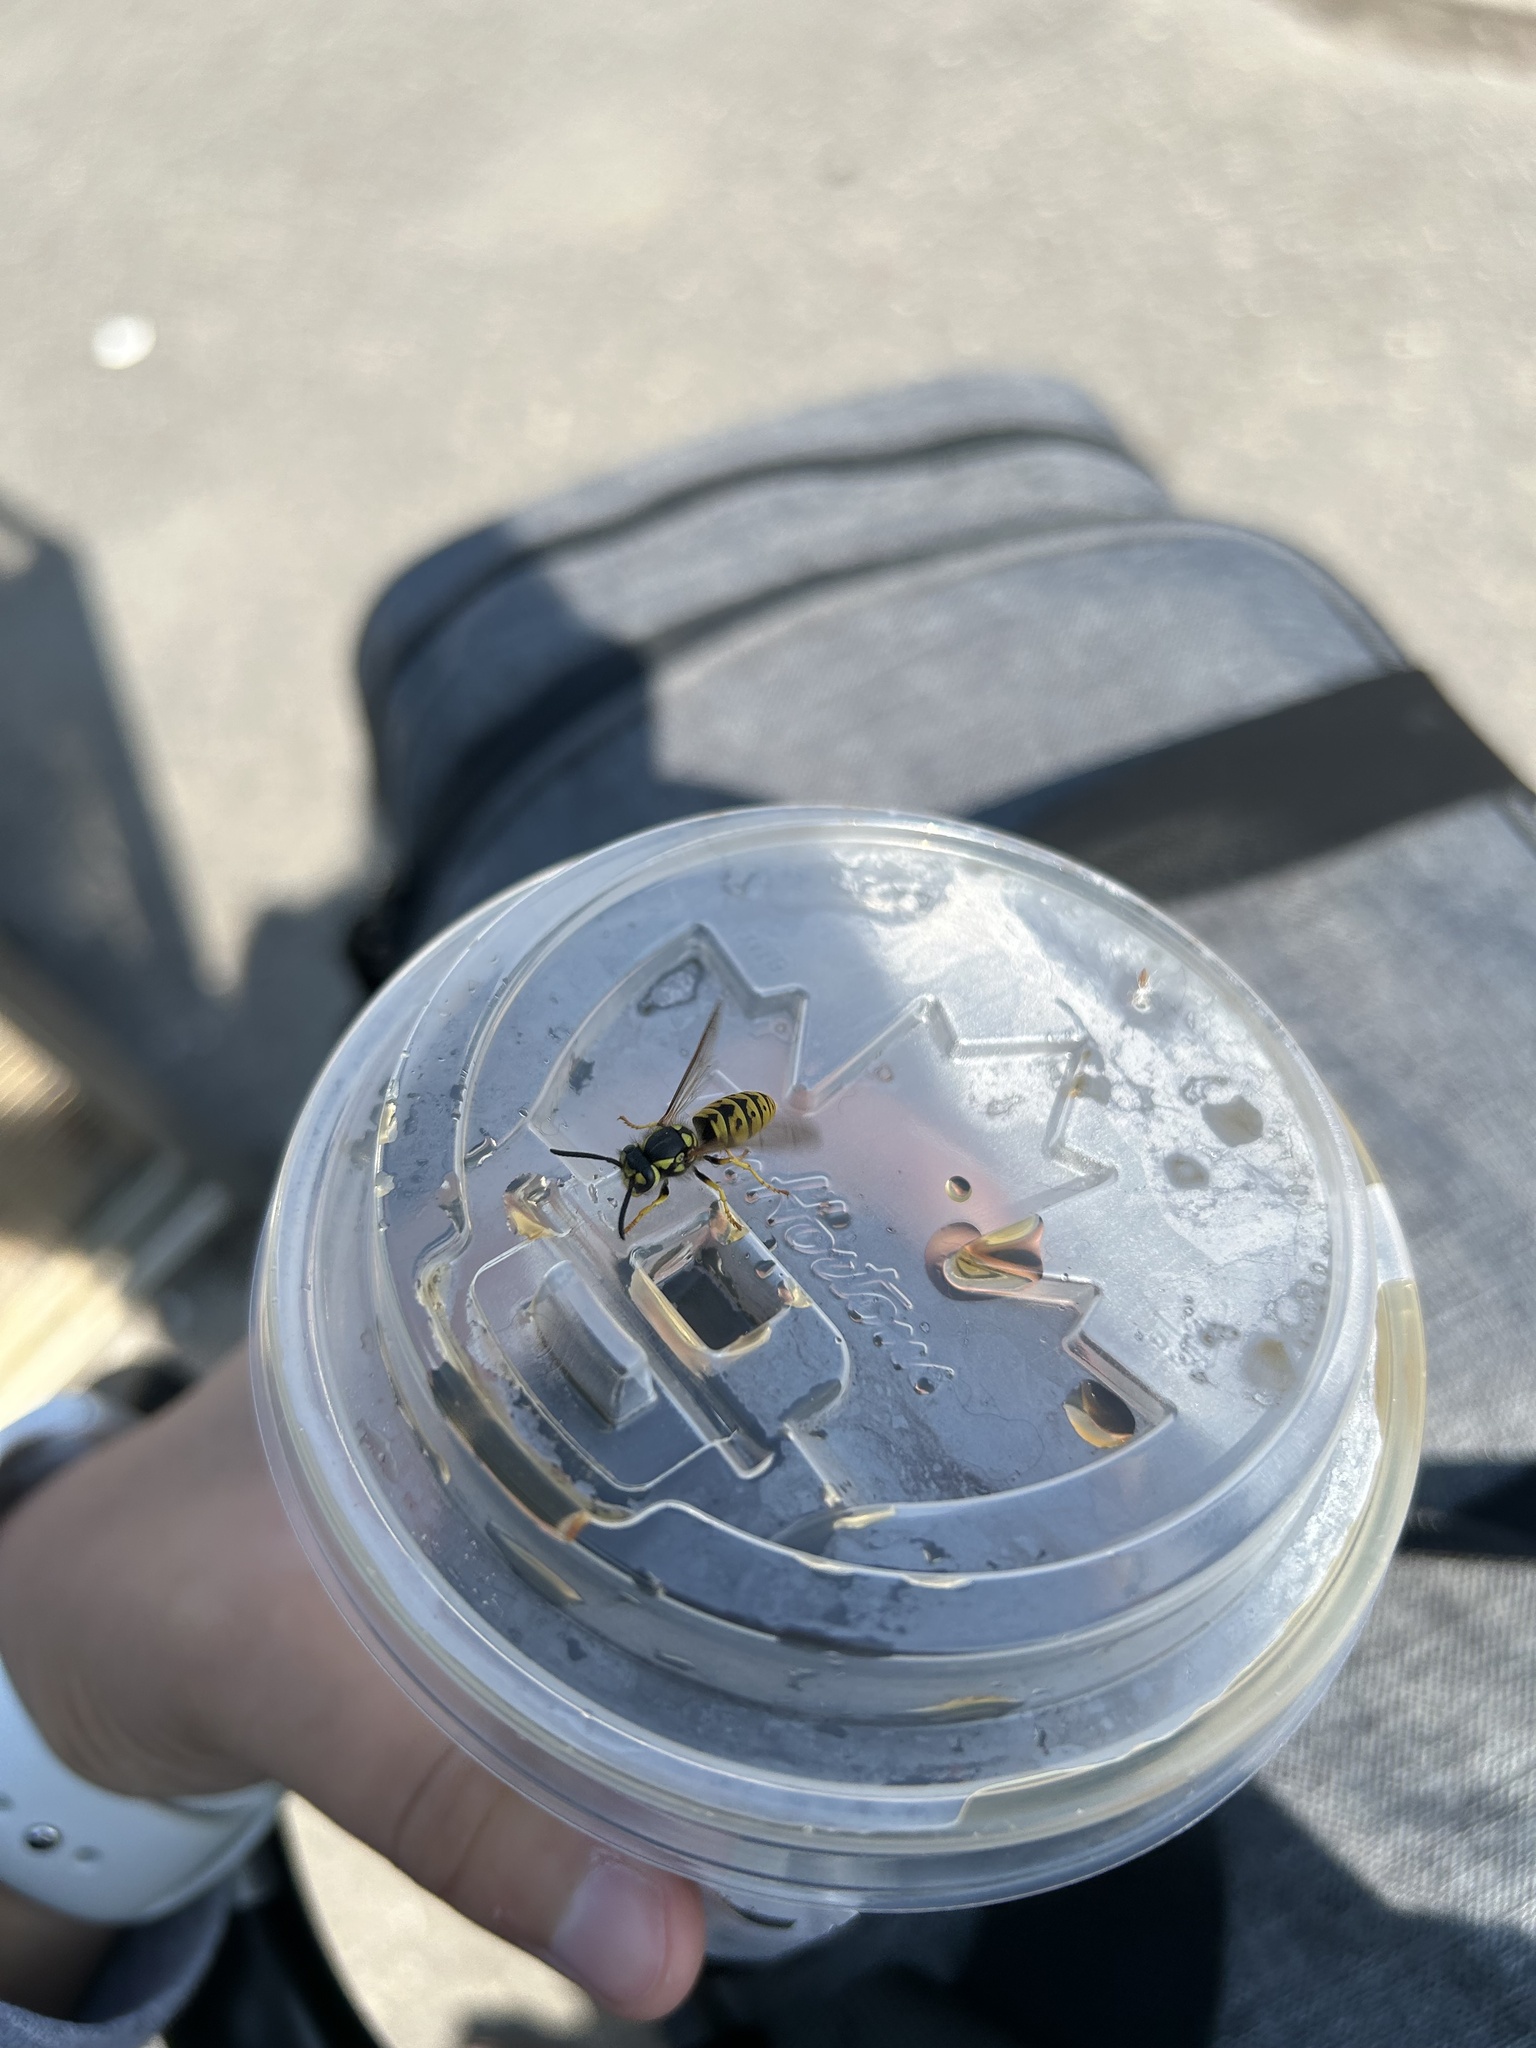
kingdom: Animalia
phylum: Arthropoda
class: Insecta
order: Hymenoptera
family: Vespidae
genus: Vespula
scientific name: Vespula germanica
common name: German wasp
